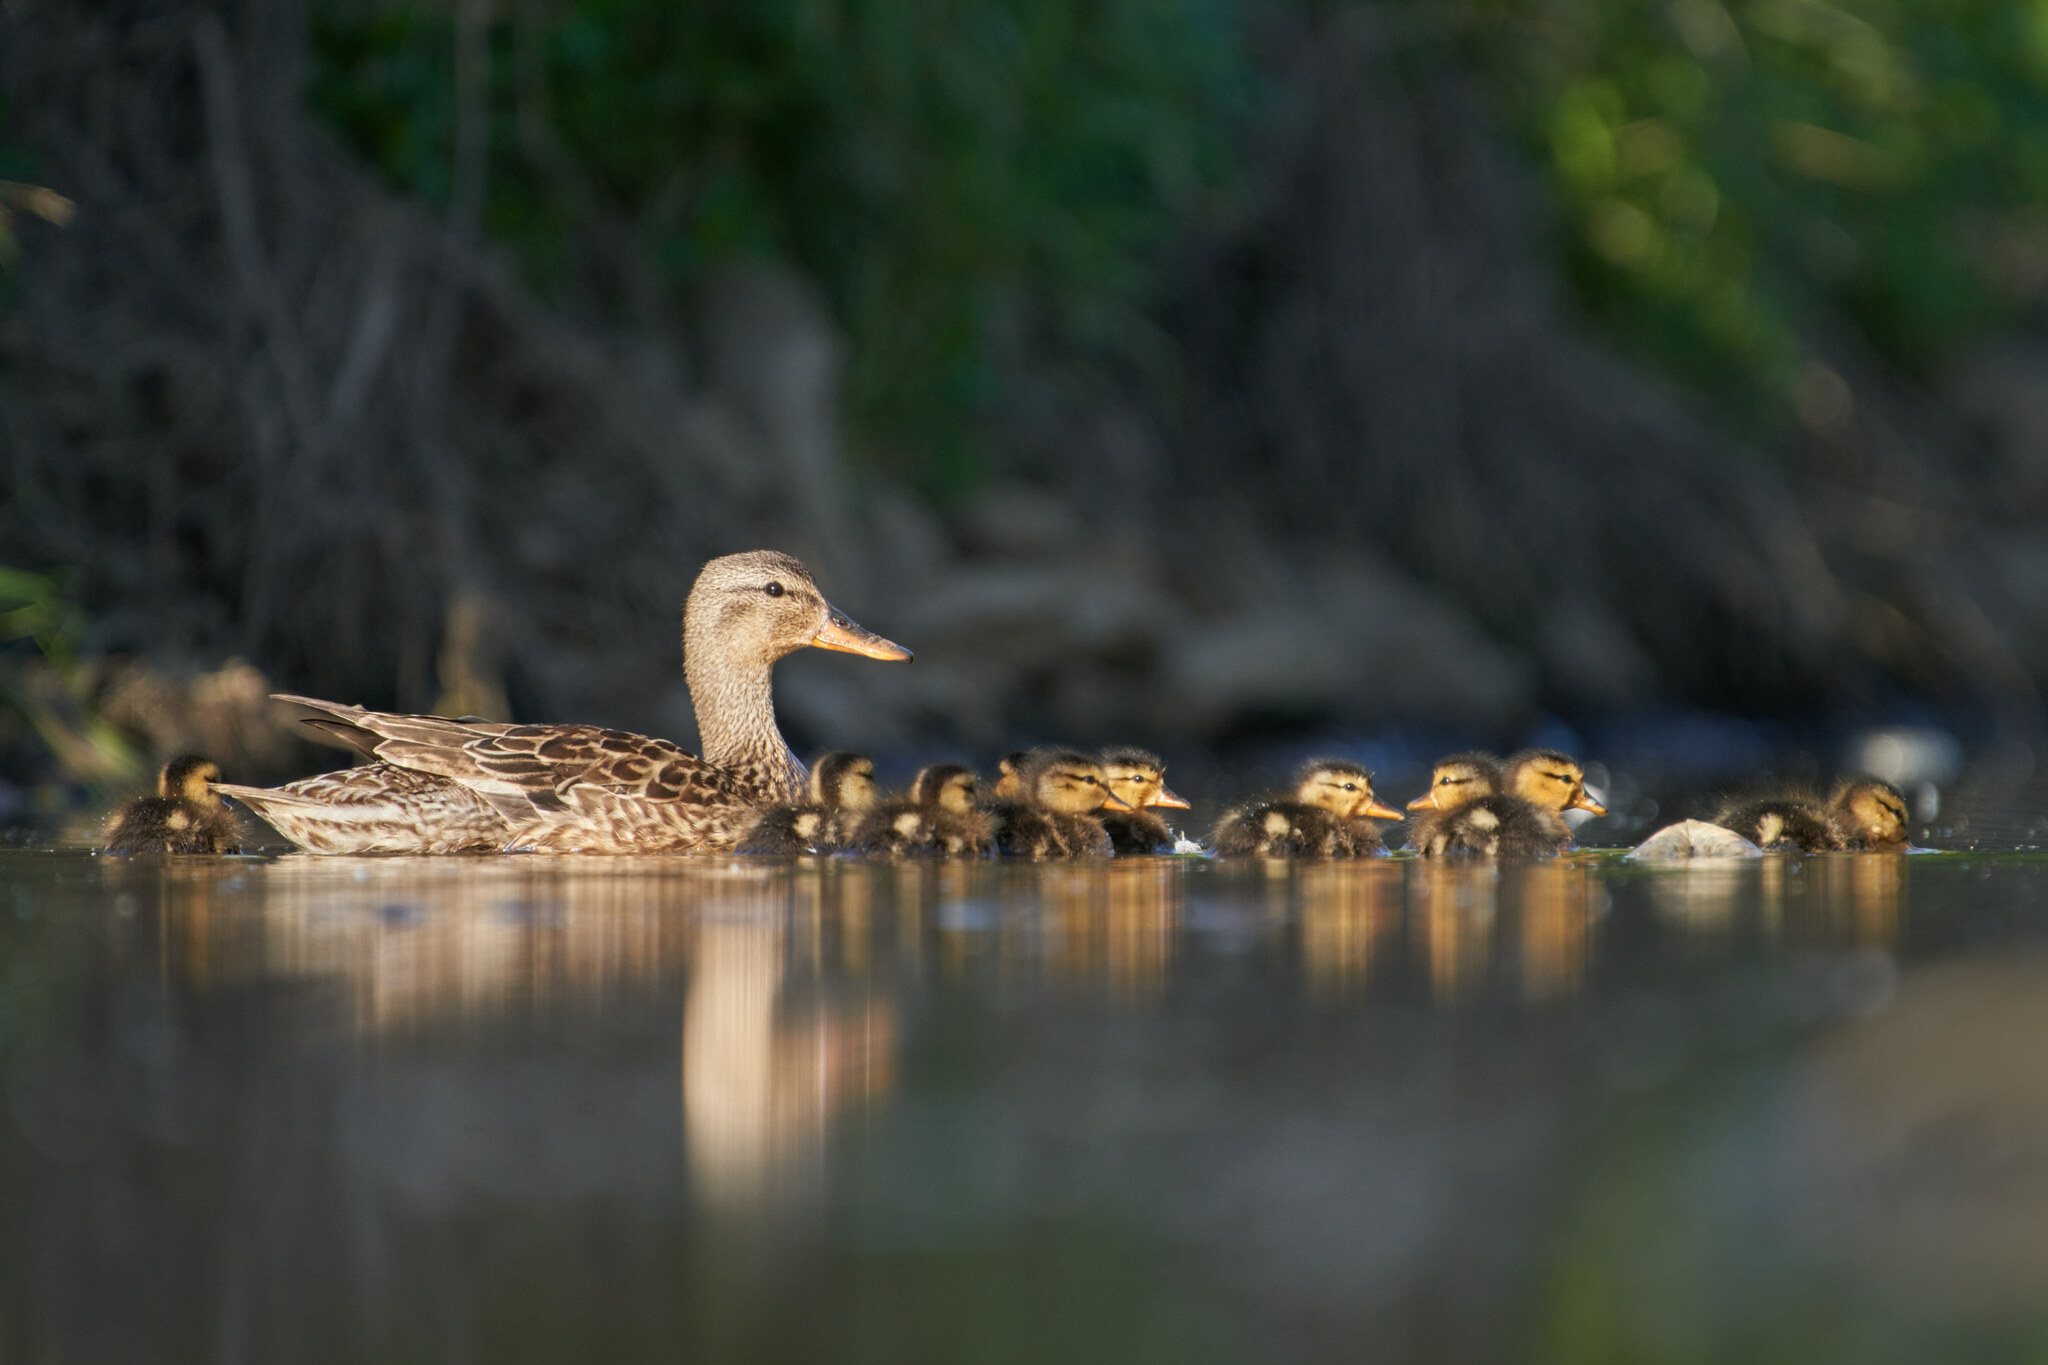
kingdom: Animalia
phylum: Chordata
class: Aves
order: Anseriformes
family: Anatidae
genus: Mareca
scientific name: Mareca strepera
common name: Gadwall
